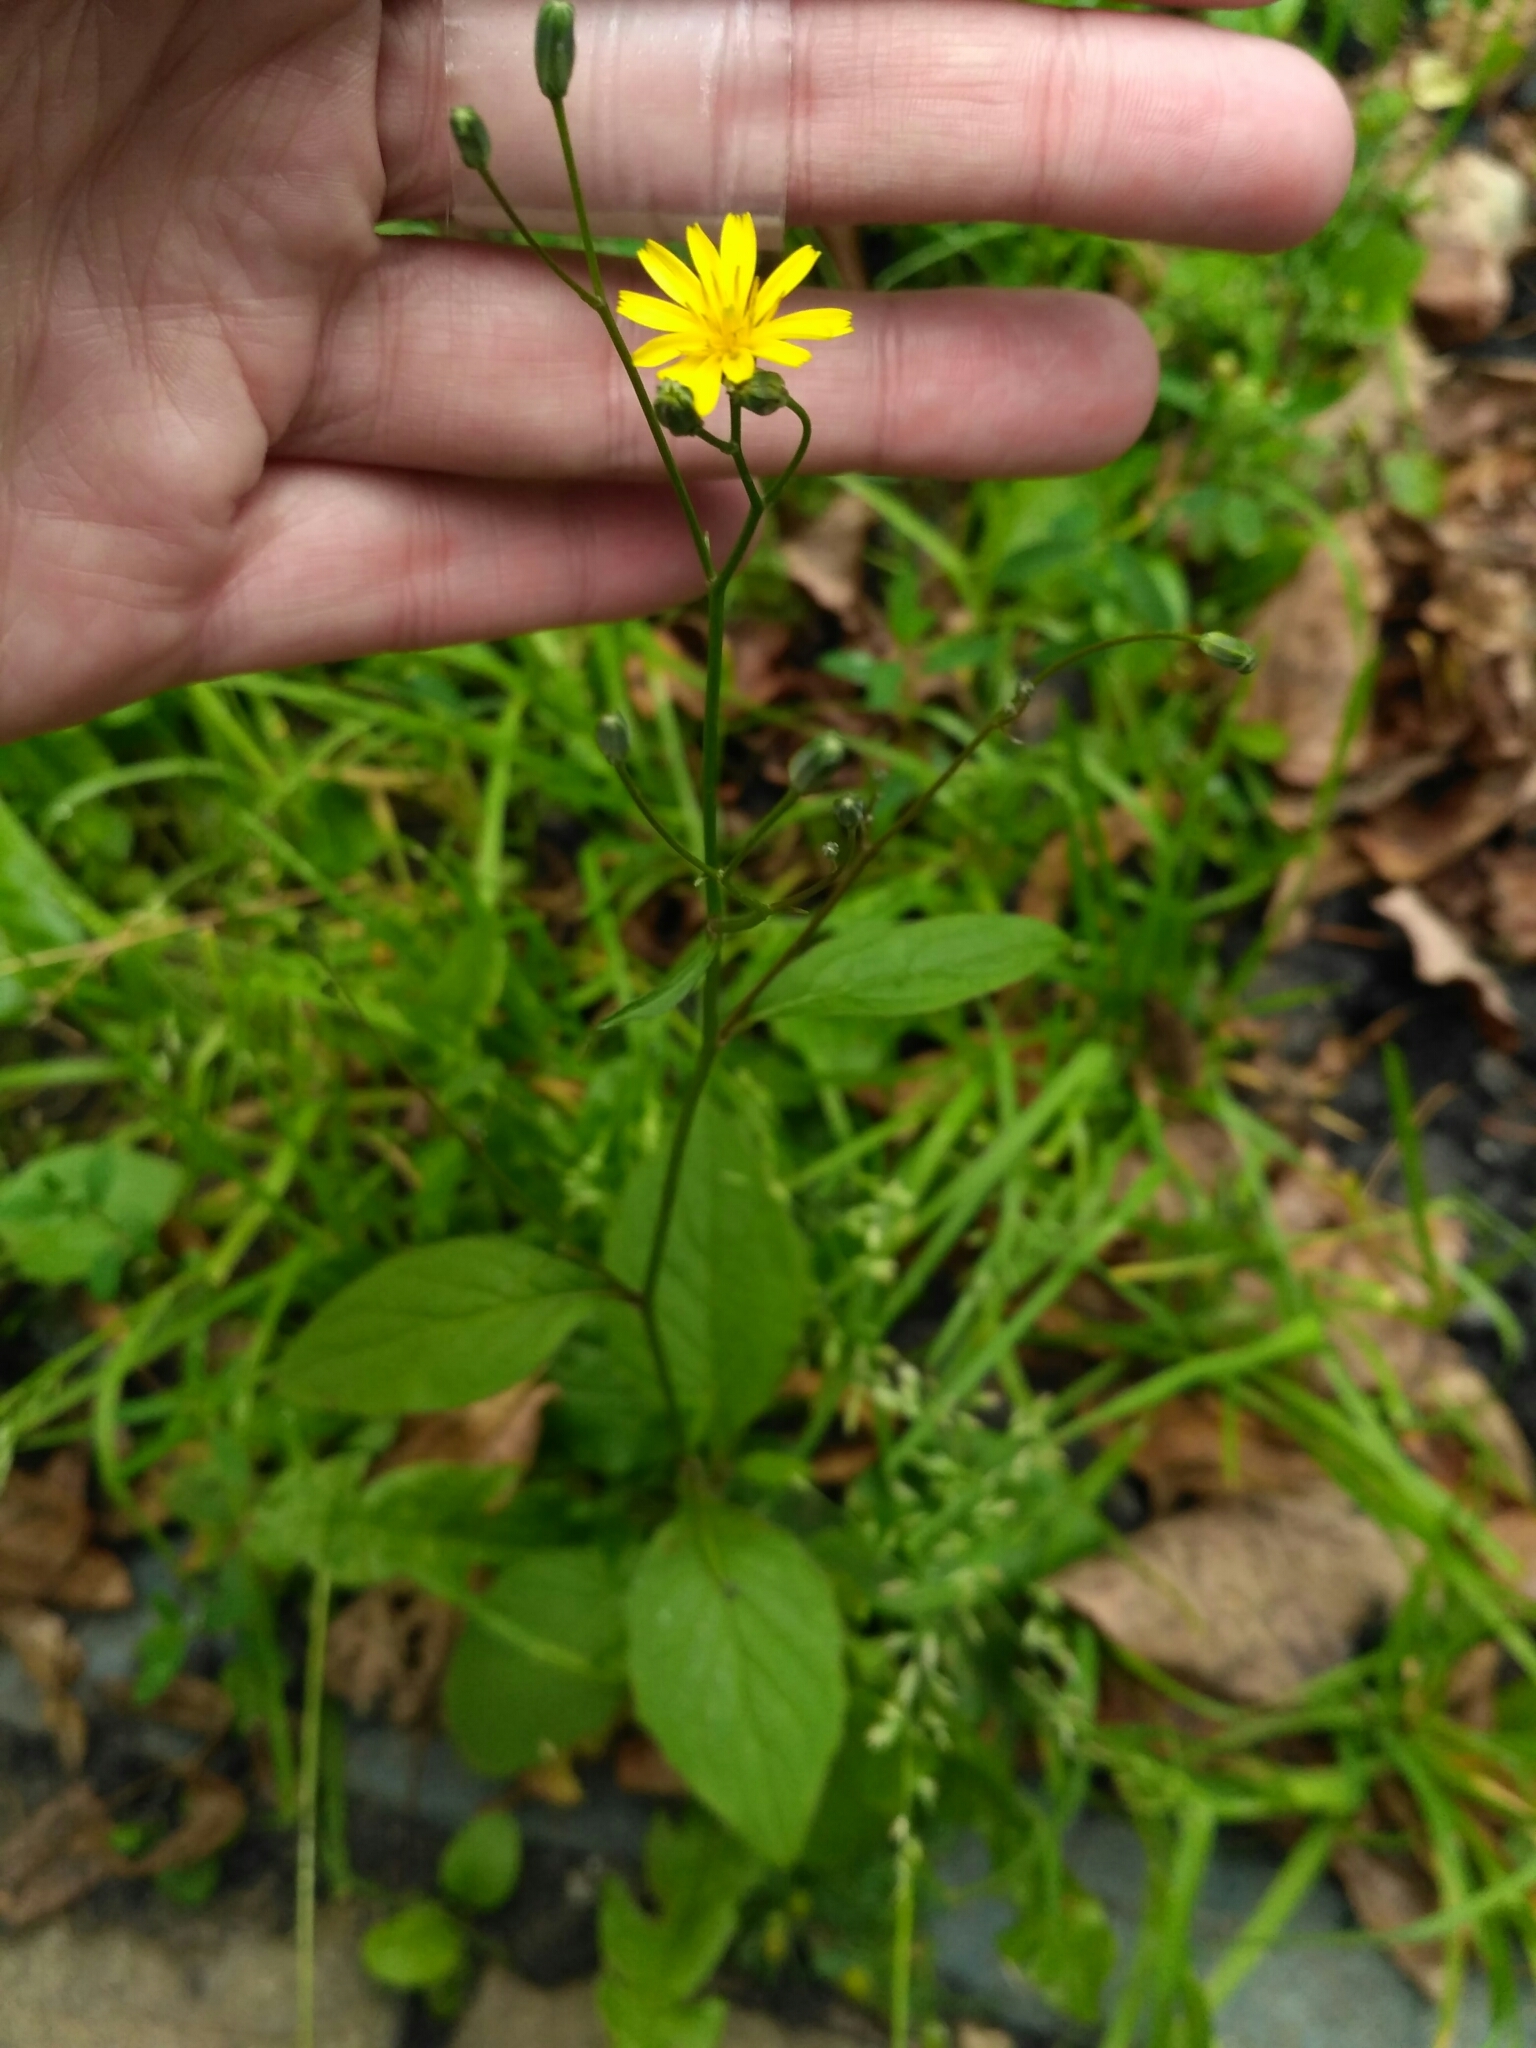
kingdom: Plantae
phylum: Tracheophyta
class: Magnoliopsida
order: Asterales
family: Asteraceae
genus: Lapsana
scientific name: Lapsana communis
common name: Nipplewort
